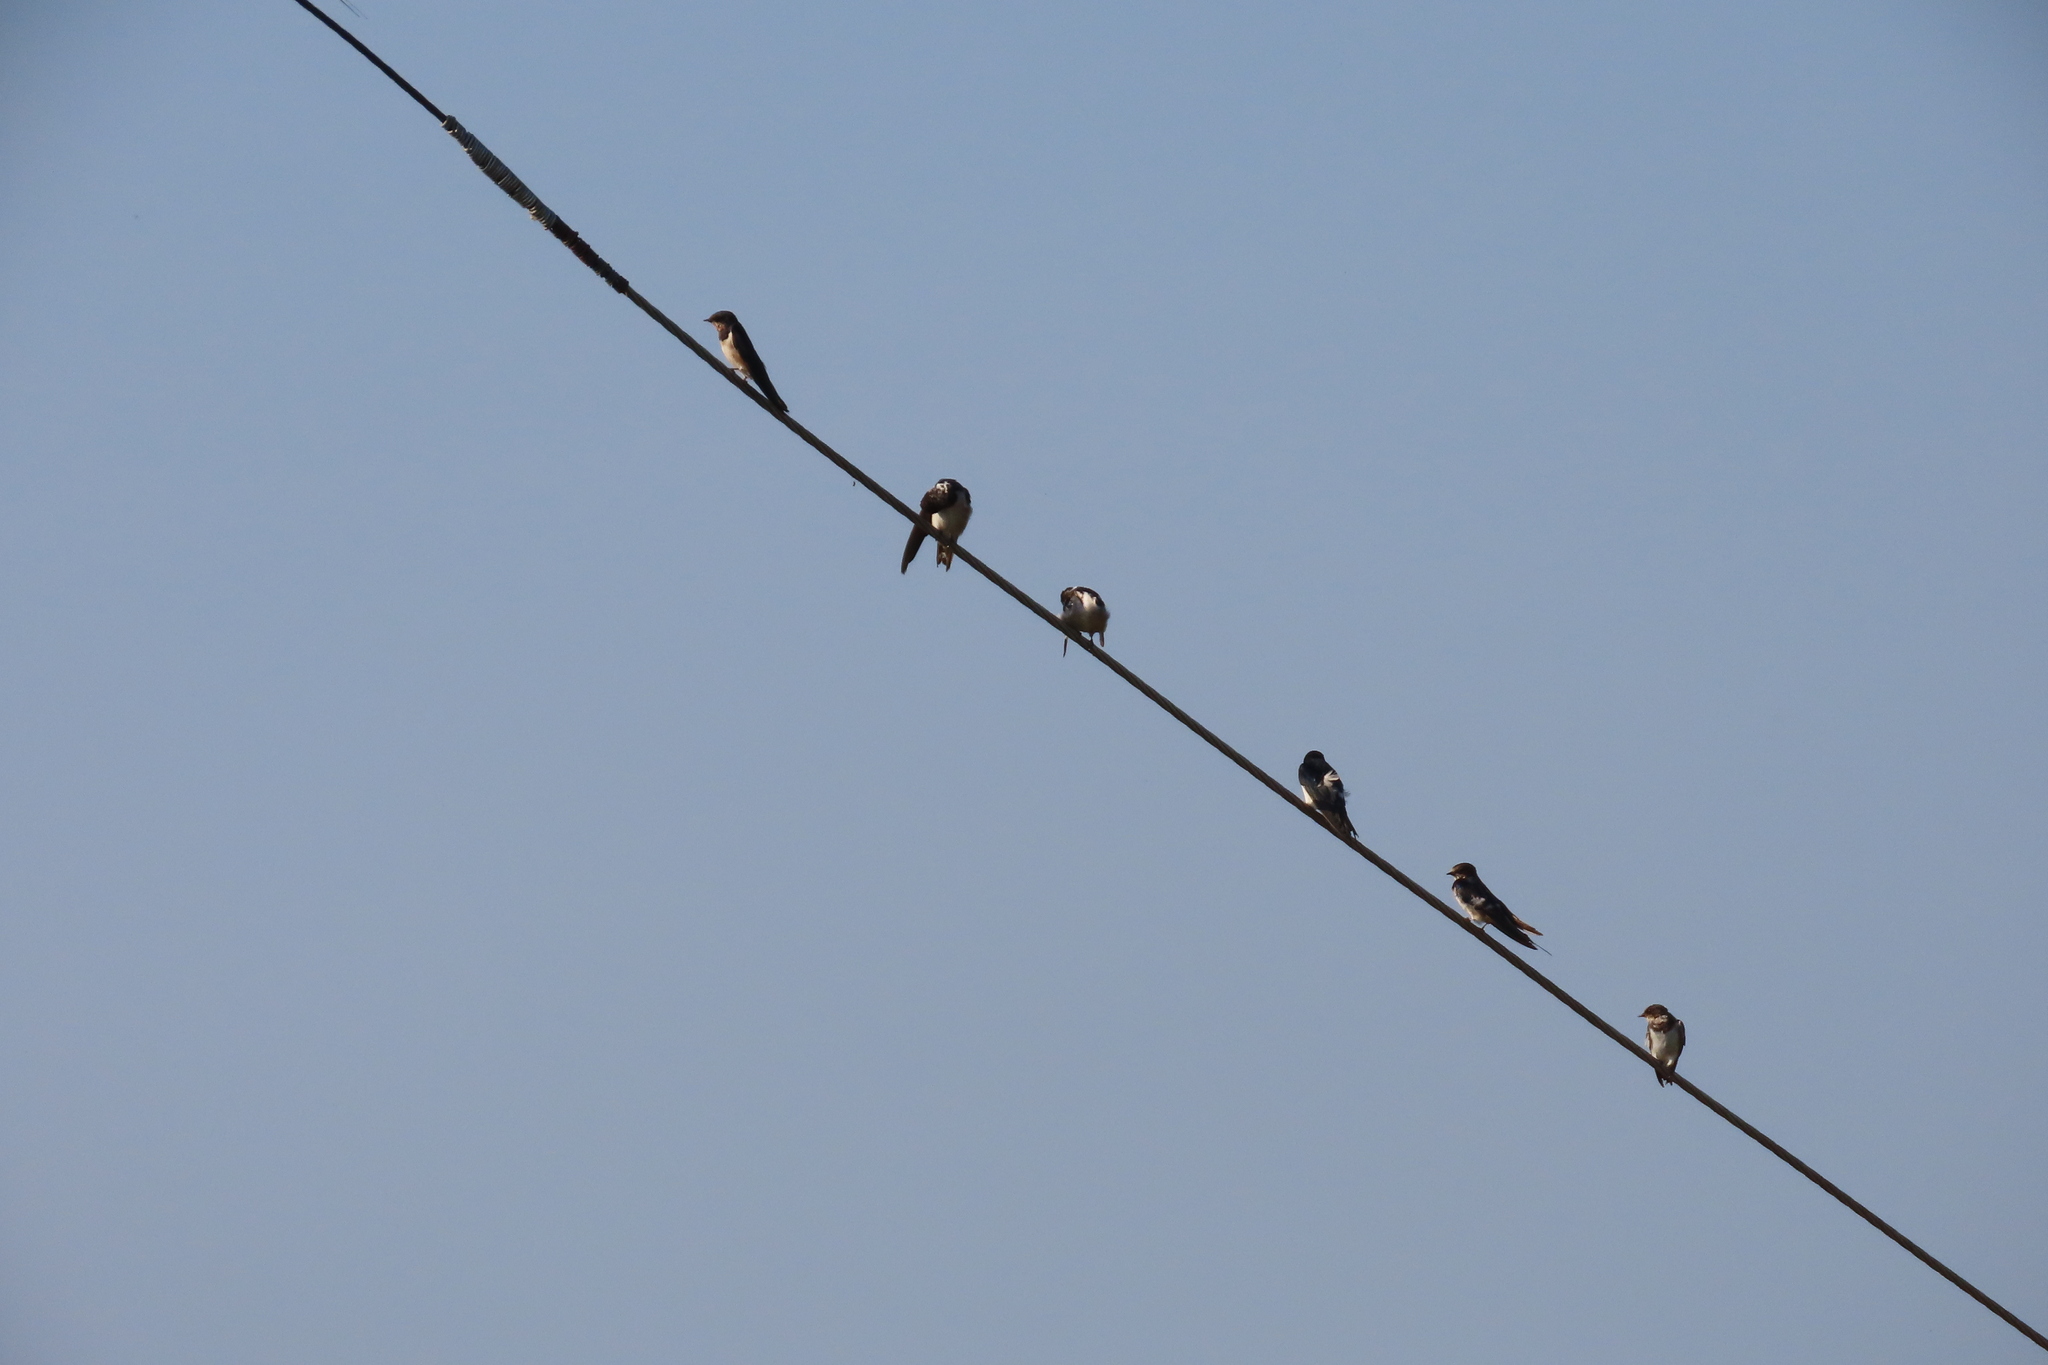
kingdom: Animalia
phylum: Chordata
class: Aves
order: Passeriformes
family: Hirundinidae
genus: Hirundo
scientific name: Hirundo rustica
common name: Barn swallow
